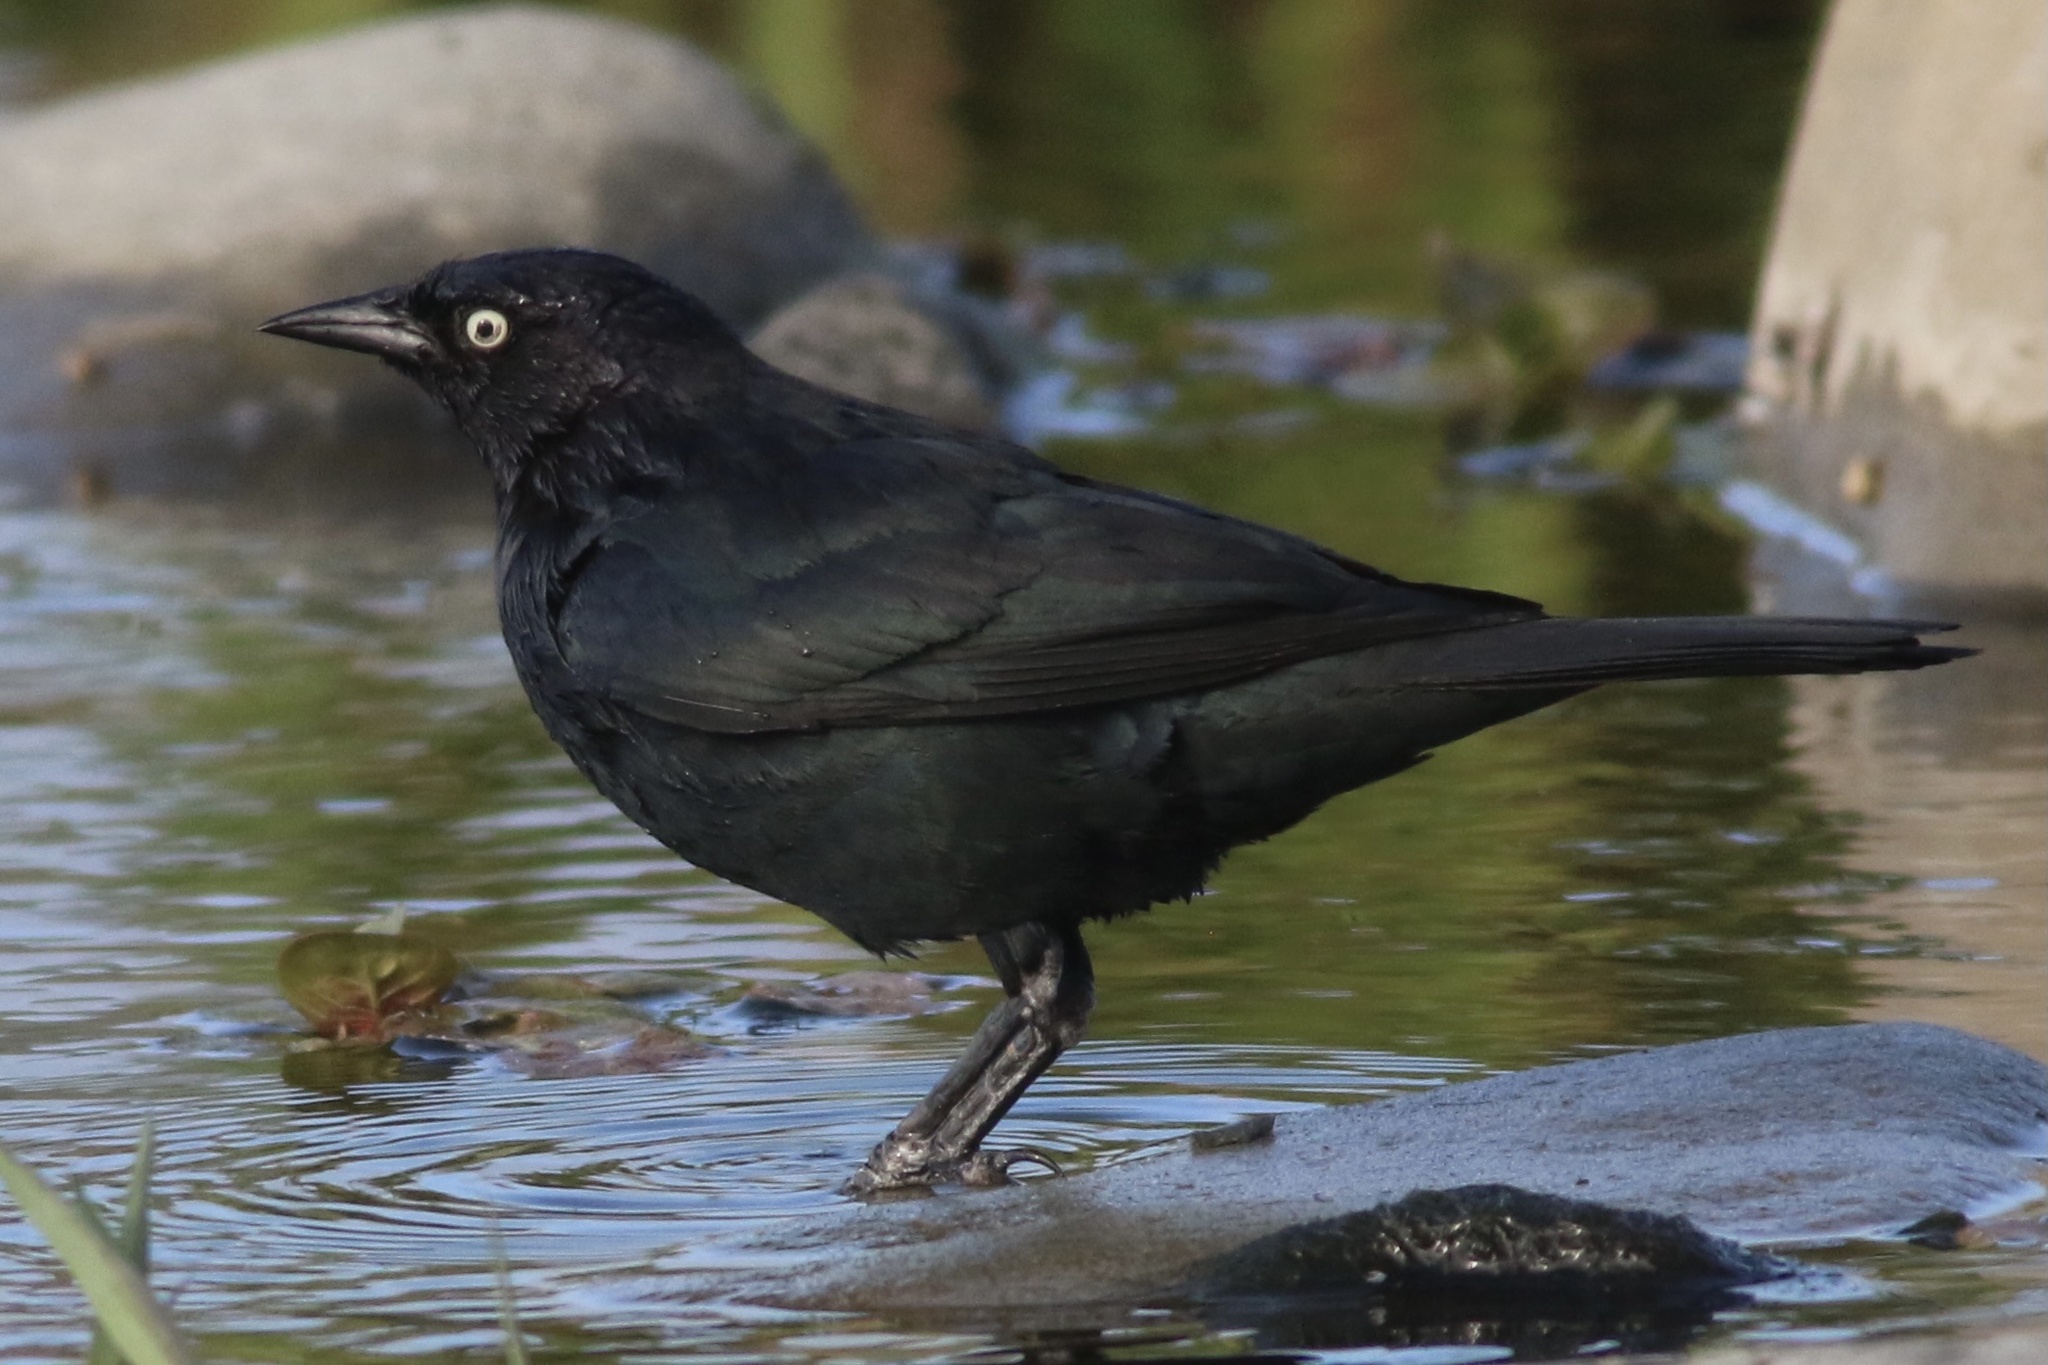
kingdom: Animalia
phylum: Chordata
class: Aves
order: Passeriformes
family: Icteridae
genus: Euphagus
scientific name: Euphagus cyanocephalus
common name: Brewer's blackbird
